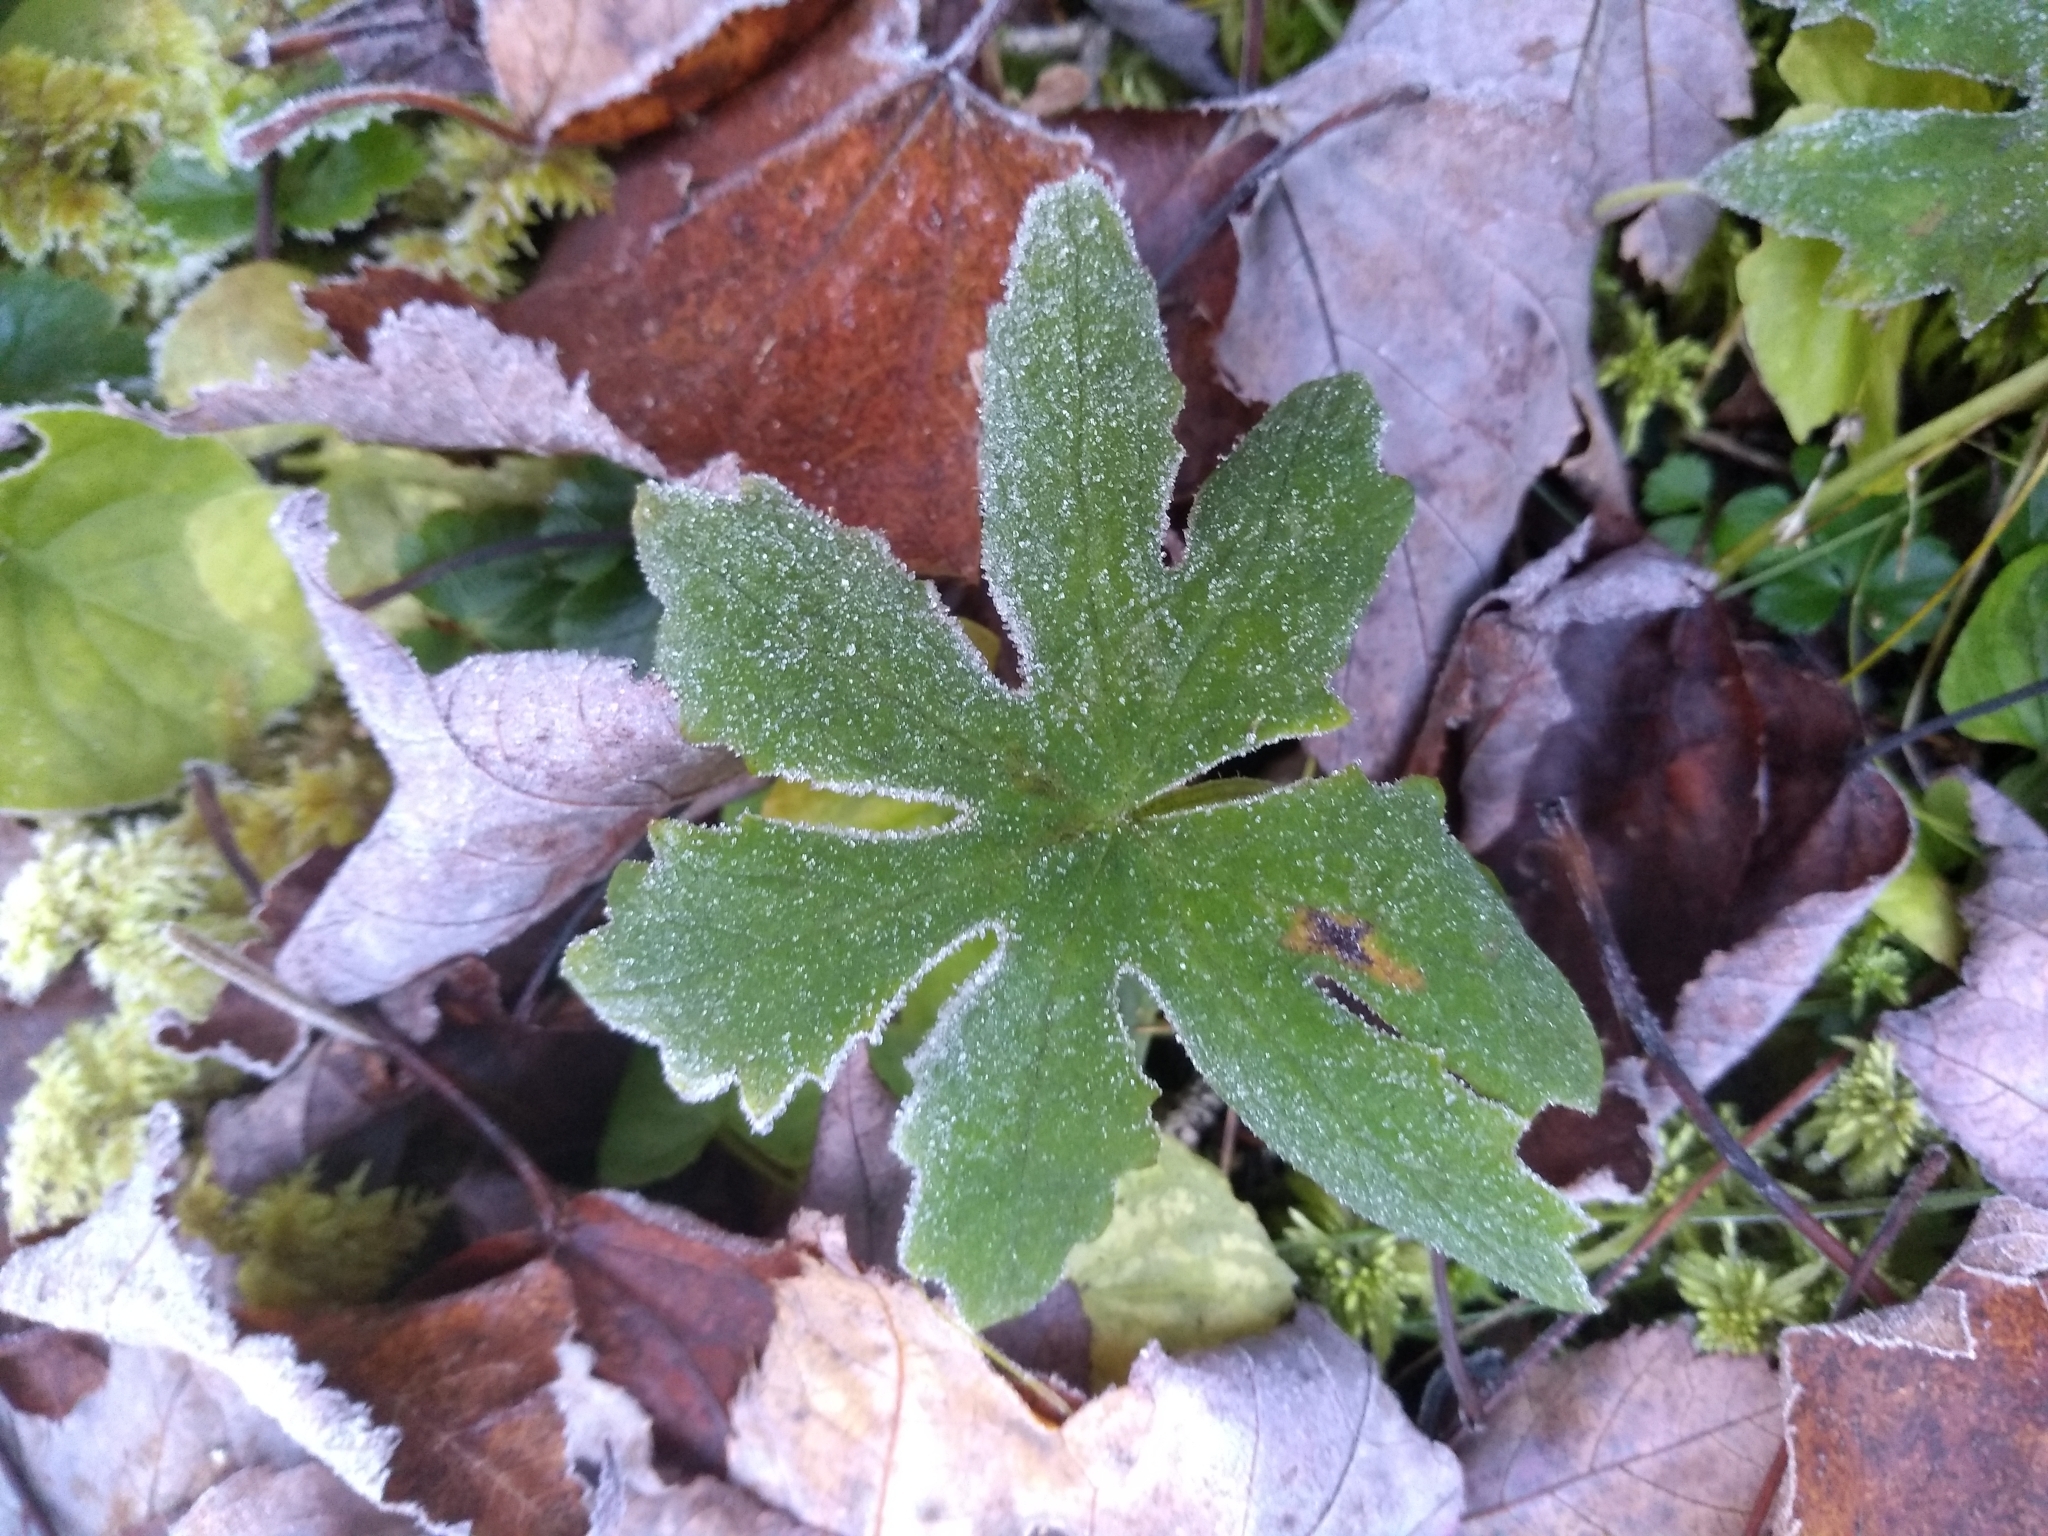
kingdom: Plantae
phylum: Tracheophyta
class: Magnoliopsida
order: Asterales
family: Asteraceae
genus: Petasites
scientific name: Petasites frigidus
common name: Arctic butterbur
